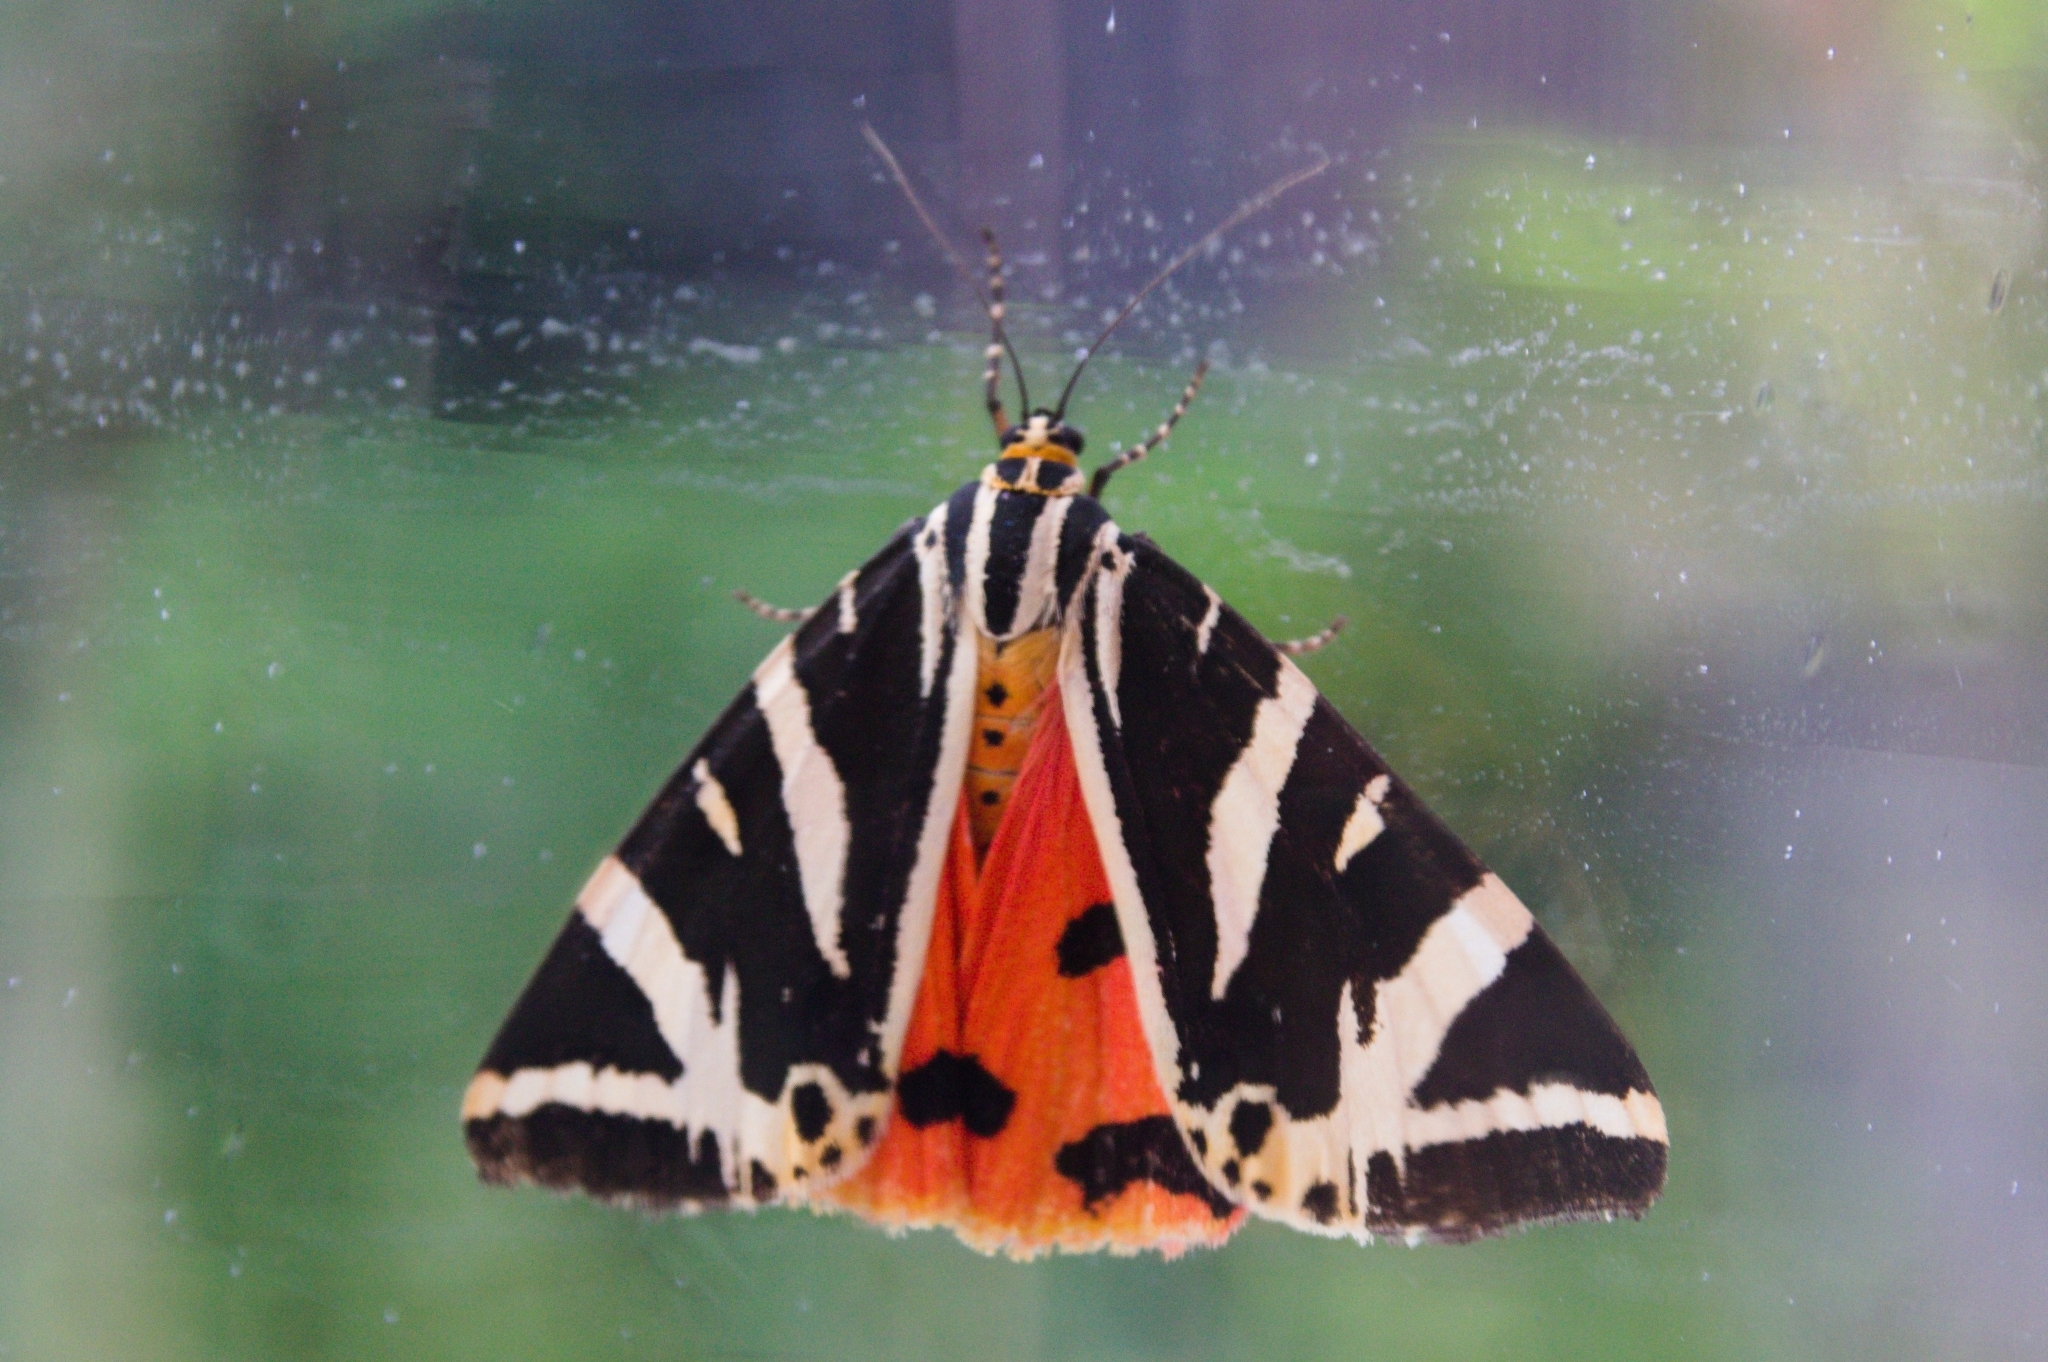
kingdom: Animalia
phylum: Arthropoda
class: Insecta
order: Lepidoptera
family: Erebidae
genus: Euplagia
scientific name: Euplagia quadripunctaria
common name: Jersey tiger
